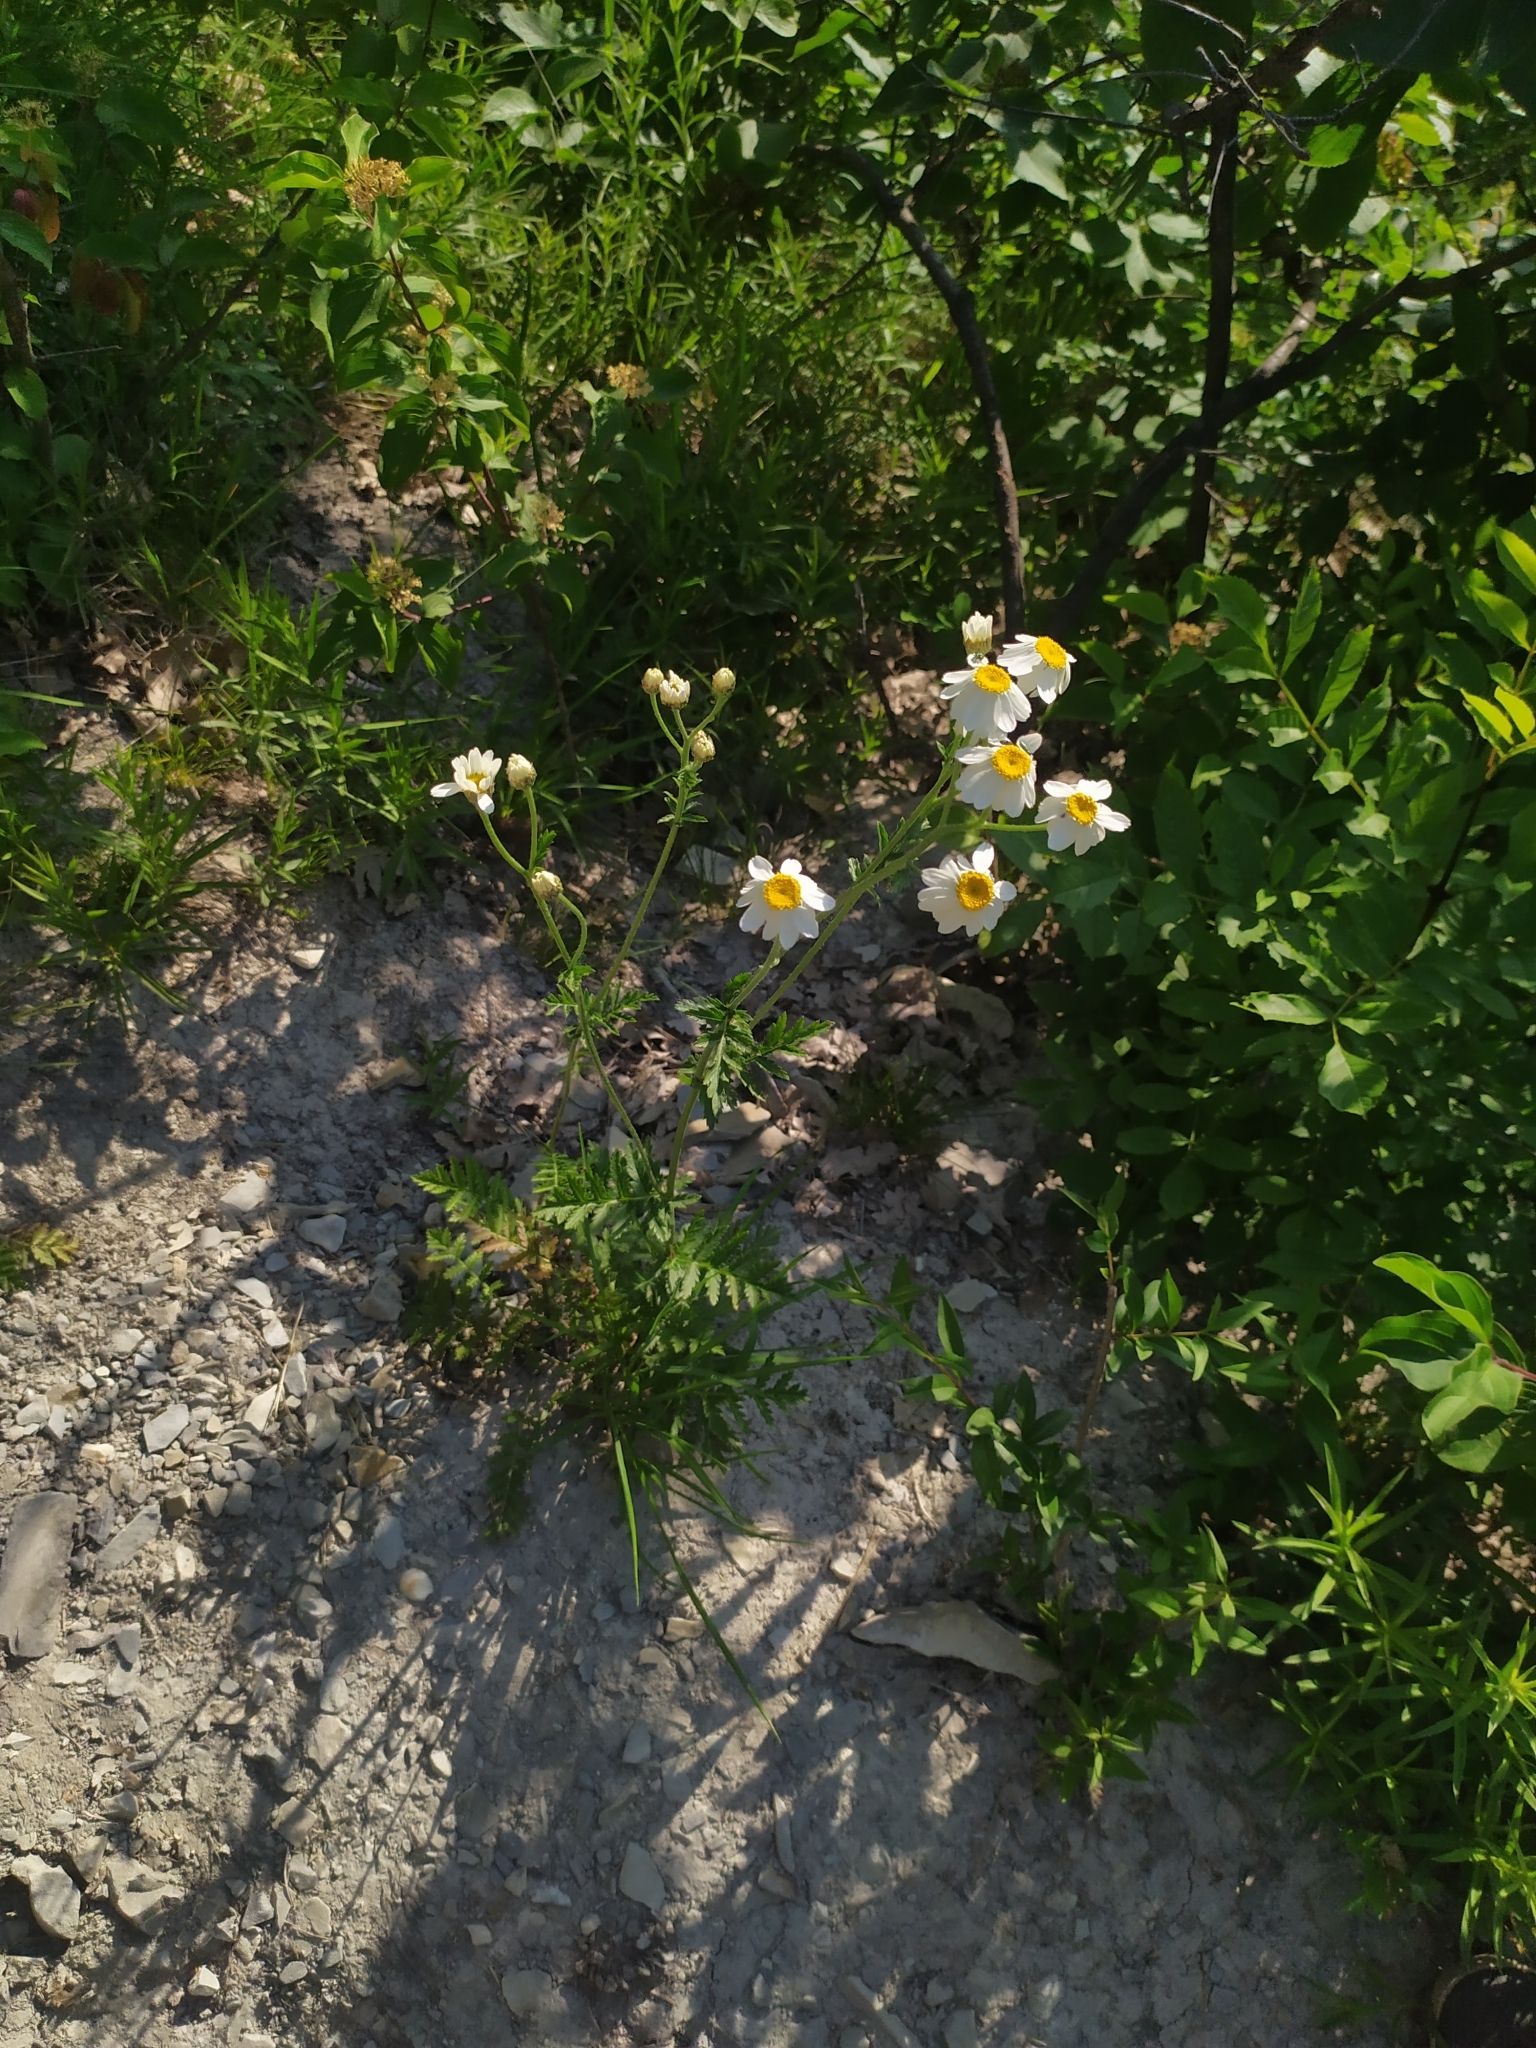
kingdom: Plantae
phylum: Tracheophyta
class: Magnoliopsida
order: Asterales
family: Asteraceae
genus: Tanacetum
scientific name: Tanacetum corymbosum
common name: Scentless feverfew
